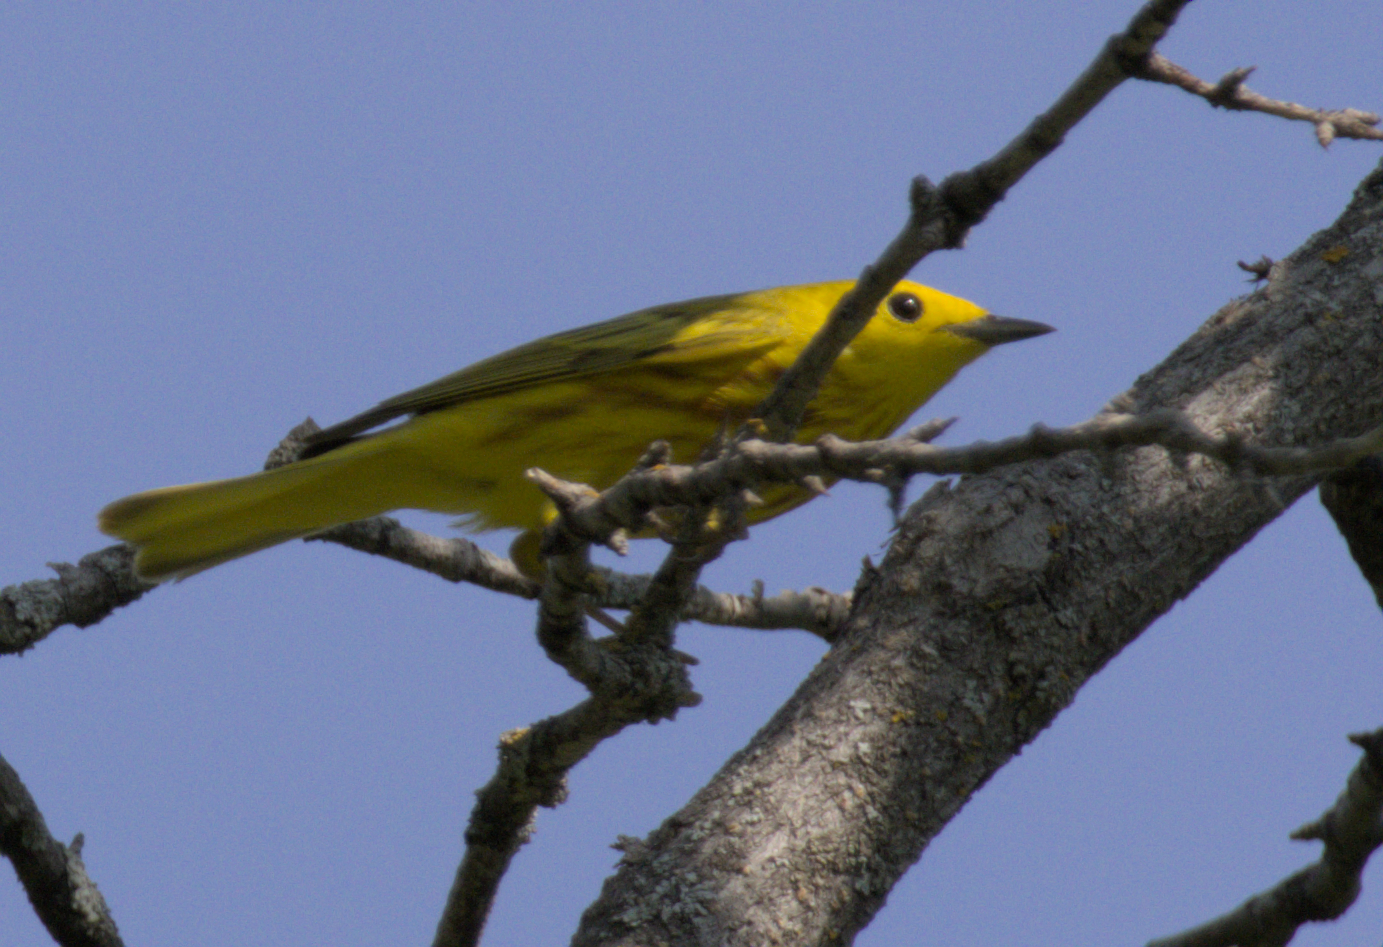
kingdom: Animalia
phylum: Chordata
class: Aves
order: Passeriformes
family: Parulidae
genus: Setophaga
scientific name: Setophaga petechia
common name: Yellow warbler
